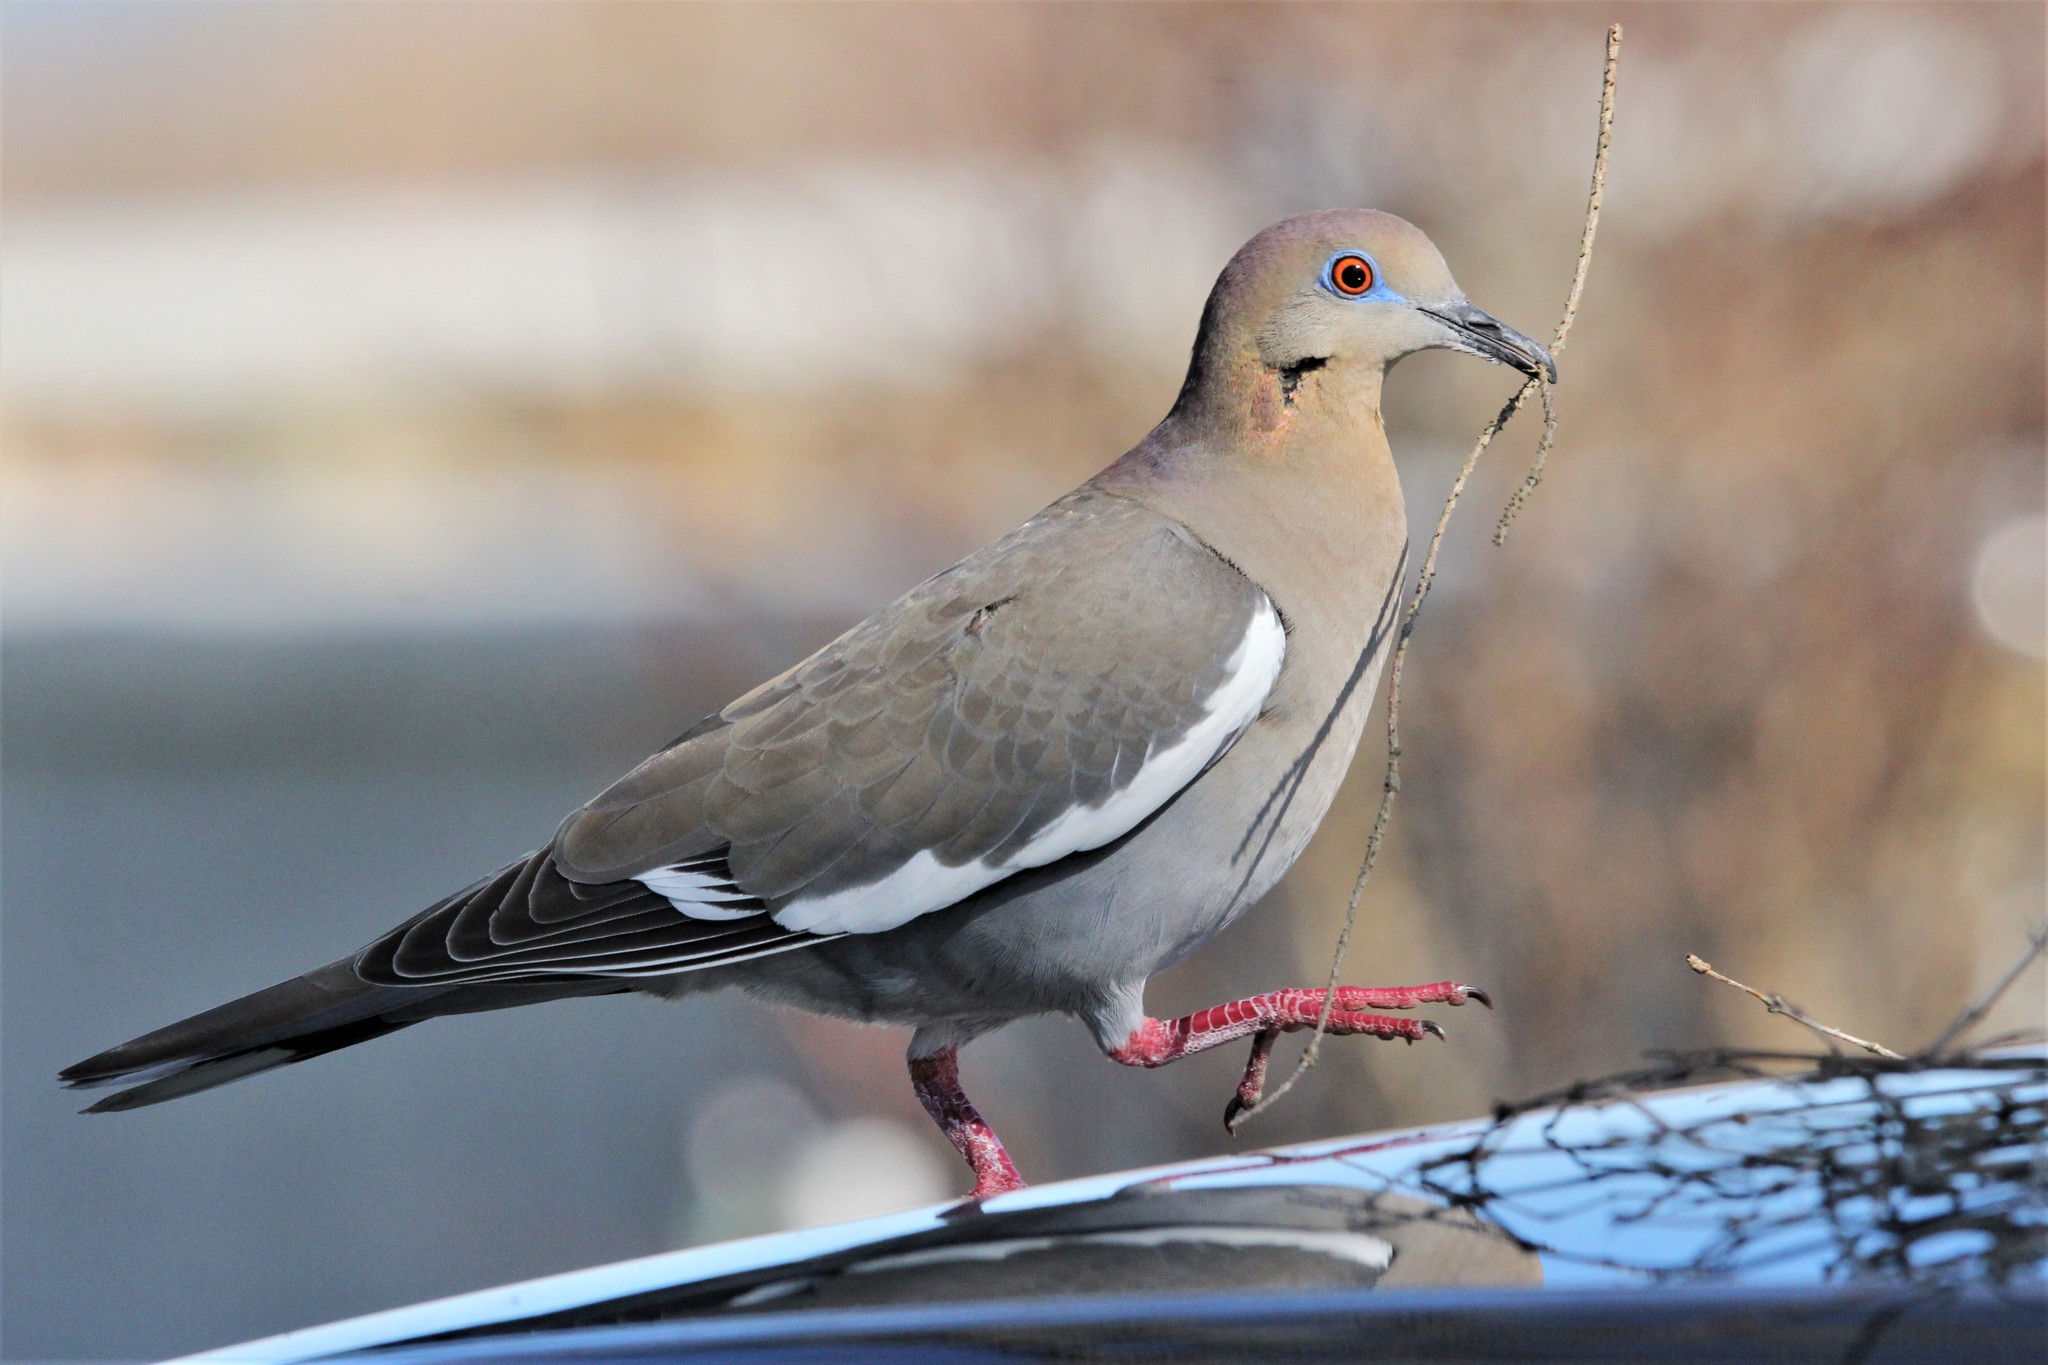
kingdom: Animalia
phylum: Chordata
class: Aves
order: Columbiformes
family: Columbidae
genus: Zenaida
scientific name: Zenaida asiatica
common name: White-winged dove
